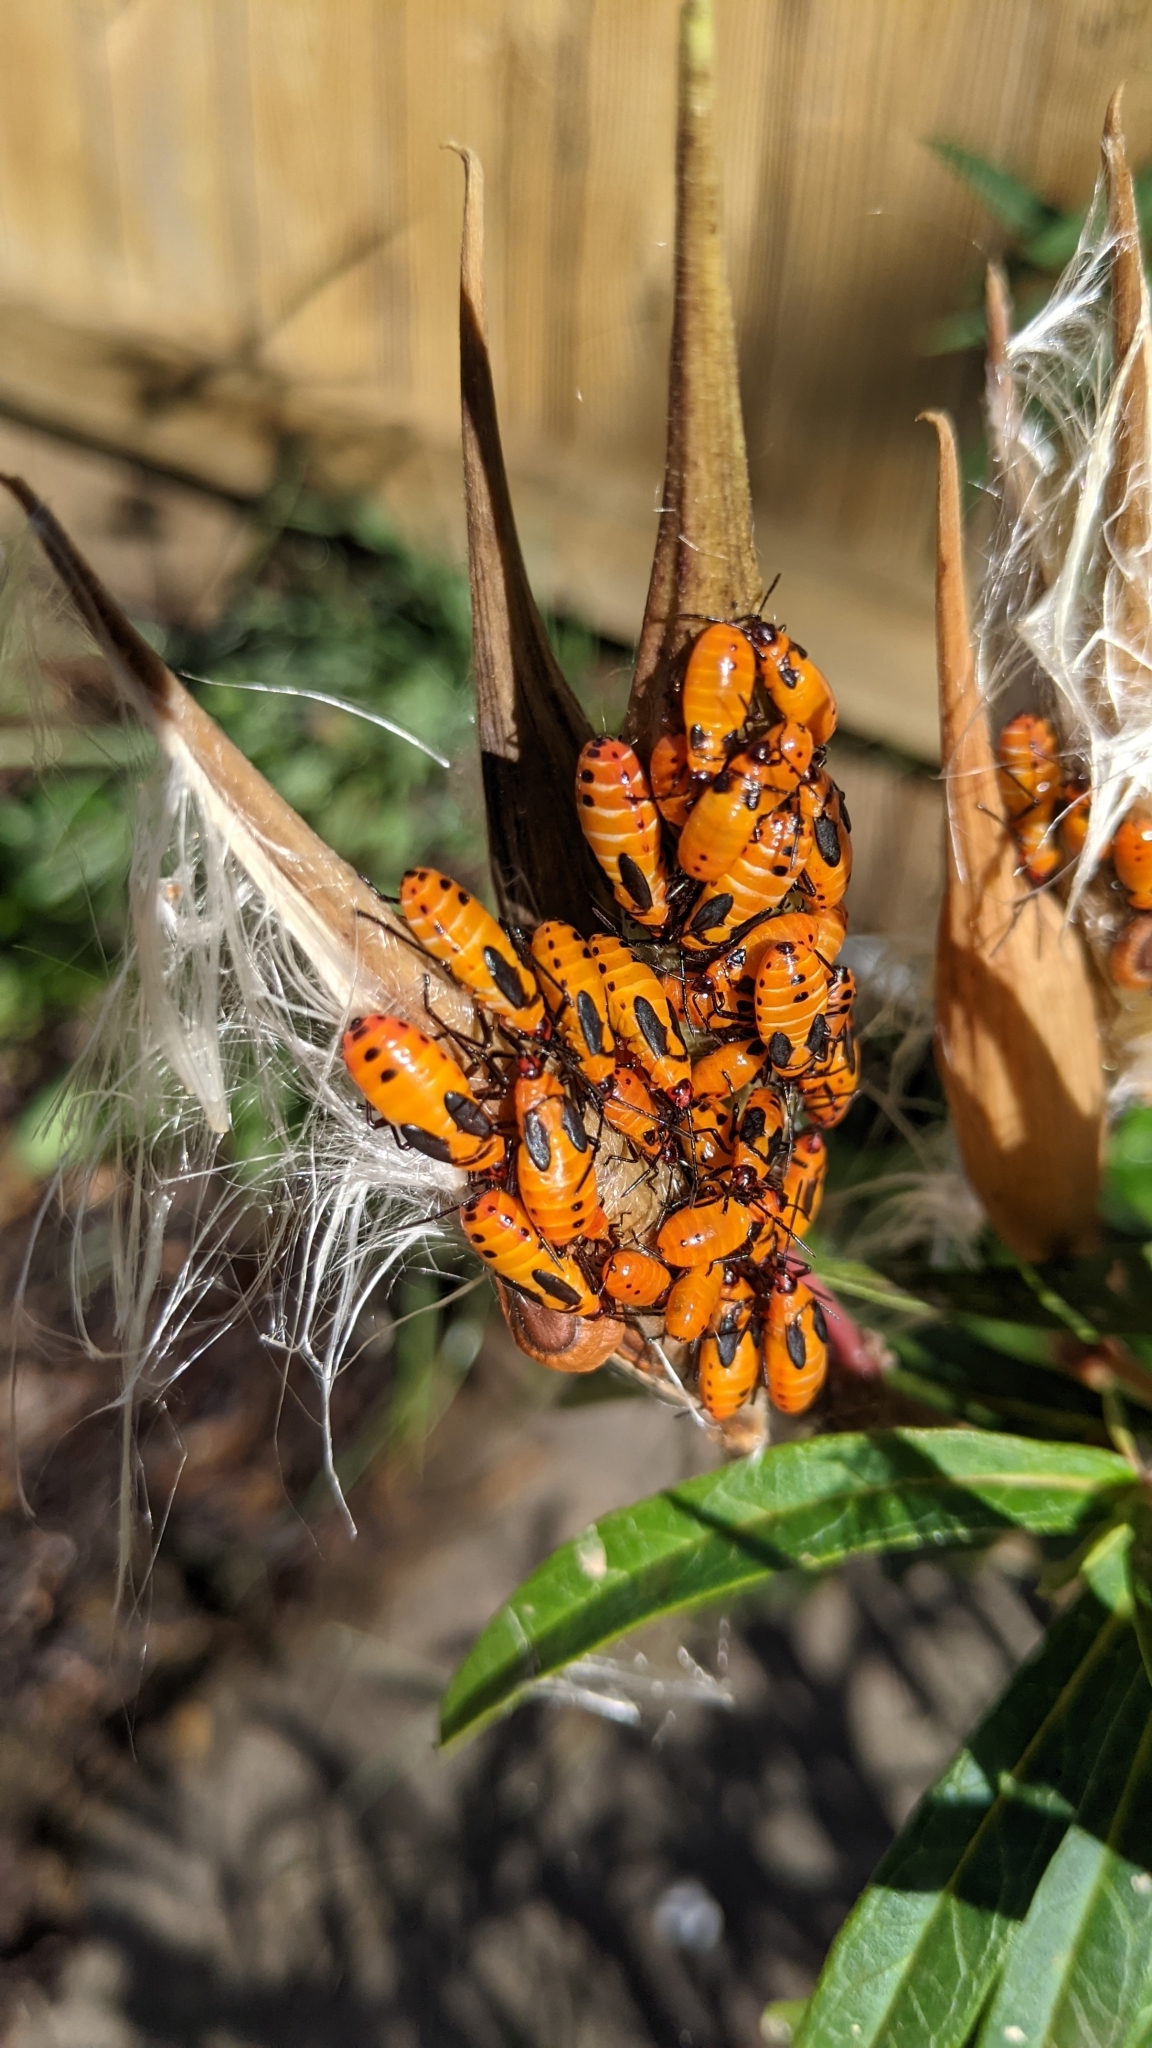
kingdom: Animalia
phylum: Arthropoda
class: Insecta
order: Hemiptera
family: Lygaeidae
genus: Oncopeltus
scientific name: Oncopeltus fasciatus
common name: Large milkweed bug
